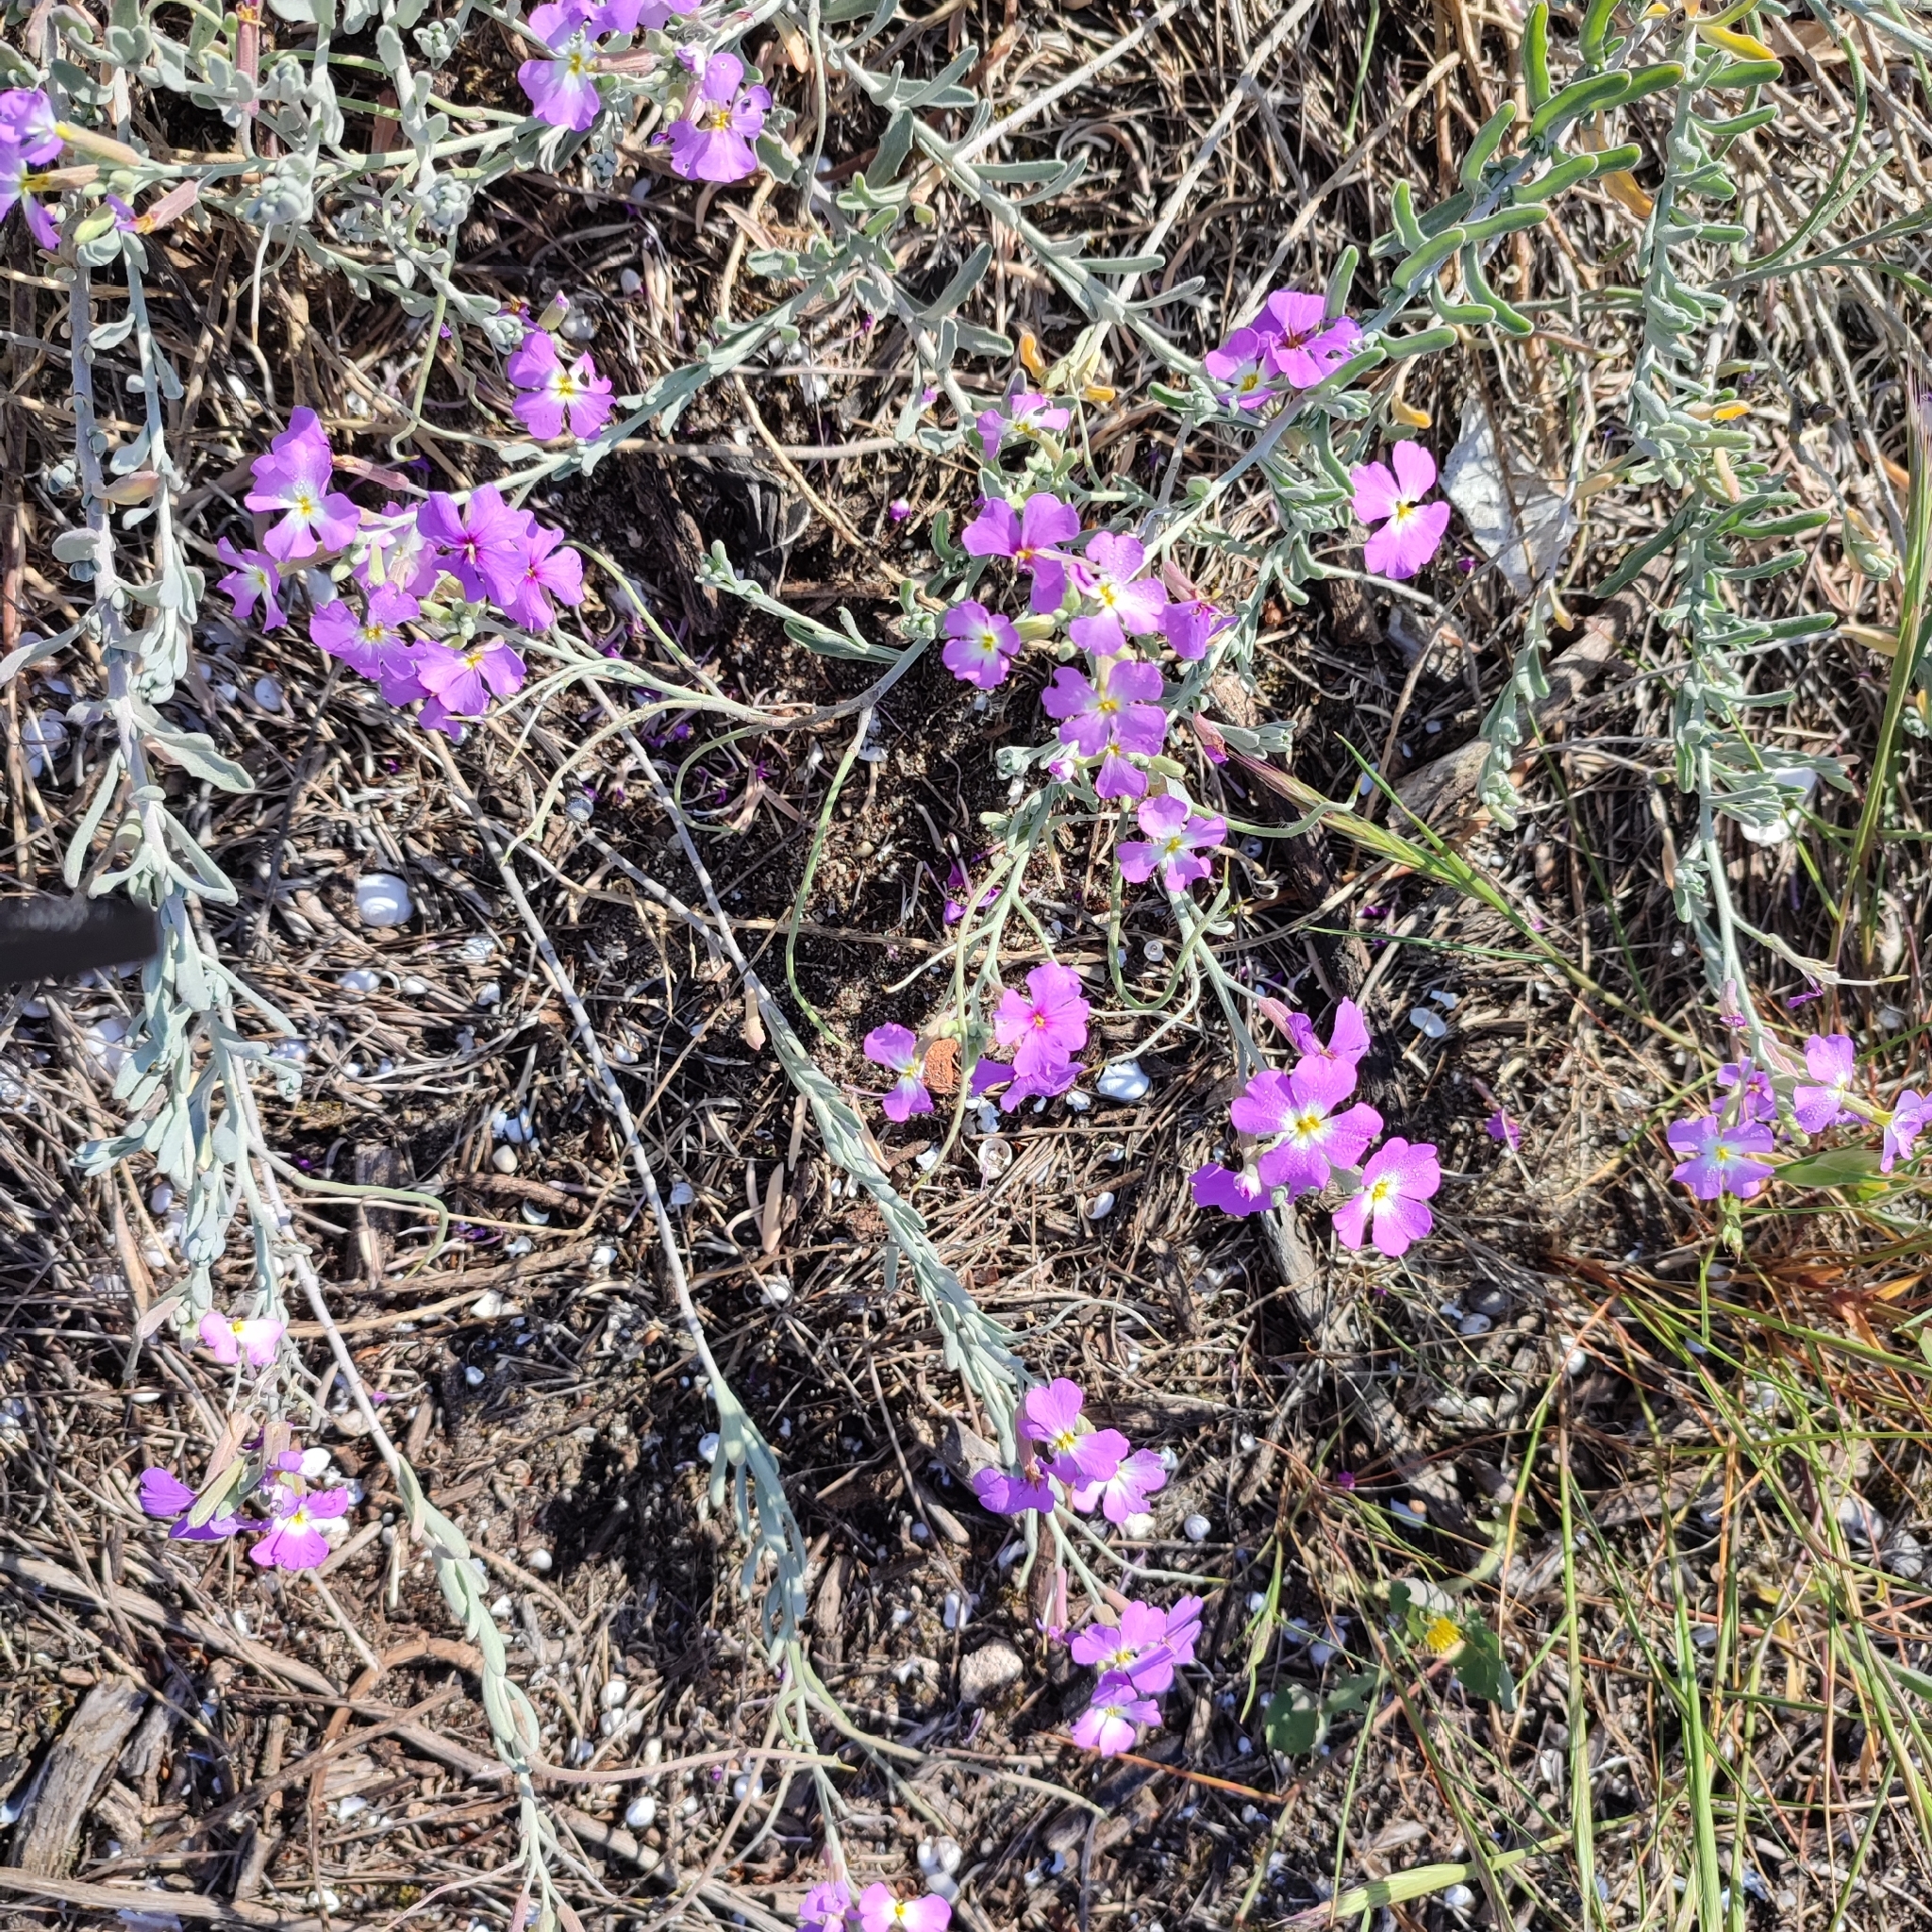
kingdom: Plantae
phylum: Tracheophyta
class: Magnoliopsida
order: Brassicales
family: Brassicaceae
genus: Marcuskochia
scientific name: Marcuskochia littorea
